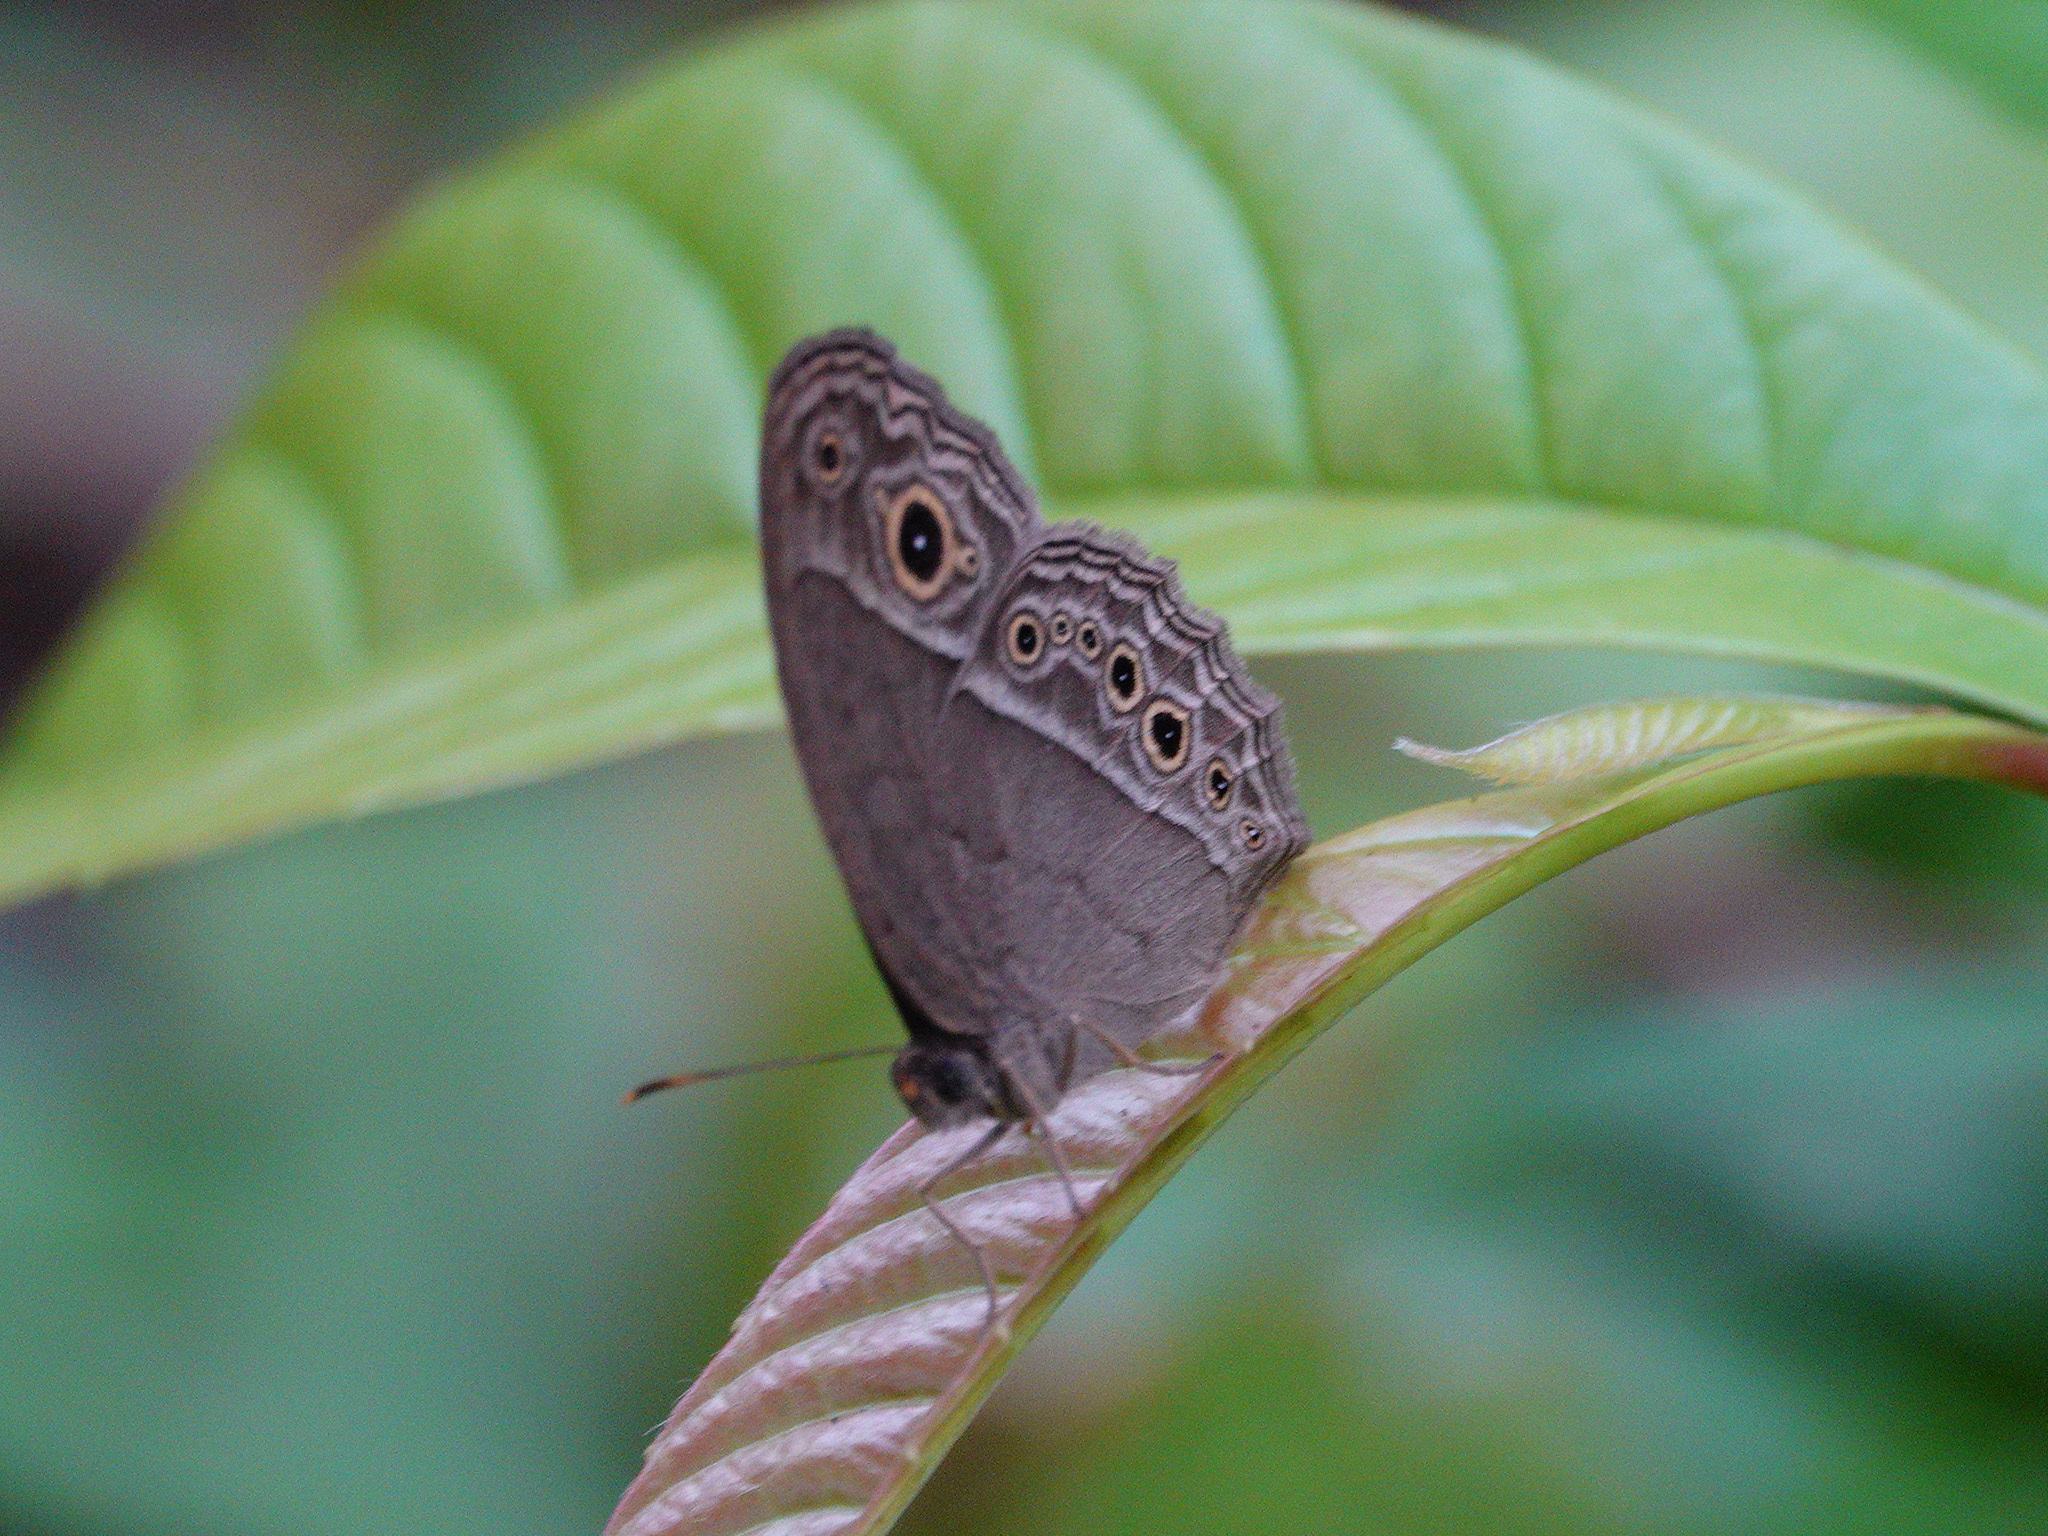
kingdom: Animalia
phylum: Arthropoda
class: Insecta
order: Lepidoptera
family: Nymphalidae
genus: Mycalesis
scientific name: Mycalesis perseoides
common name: Burmese bushbrown
